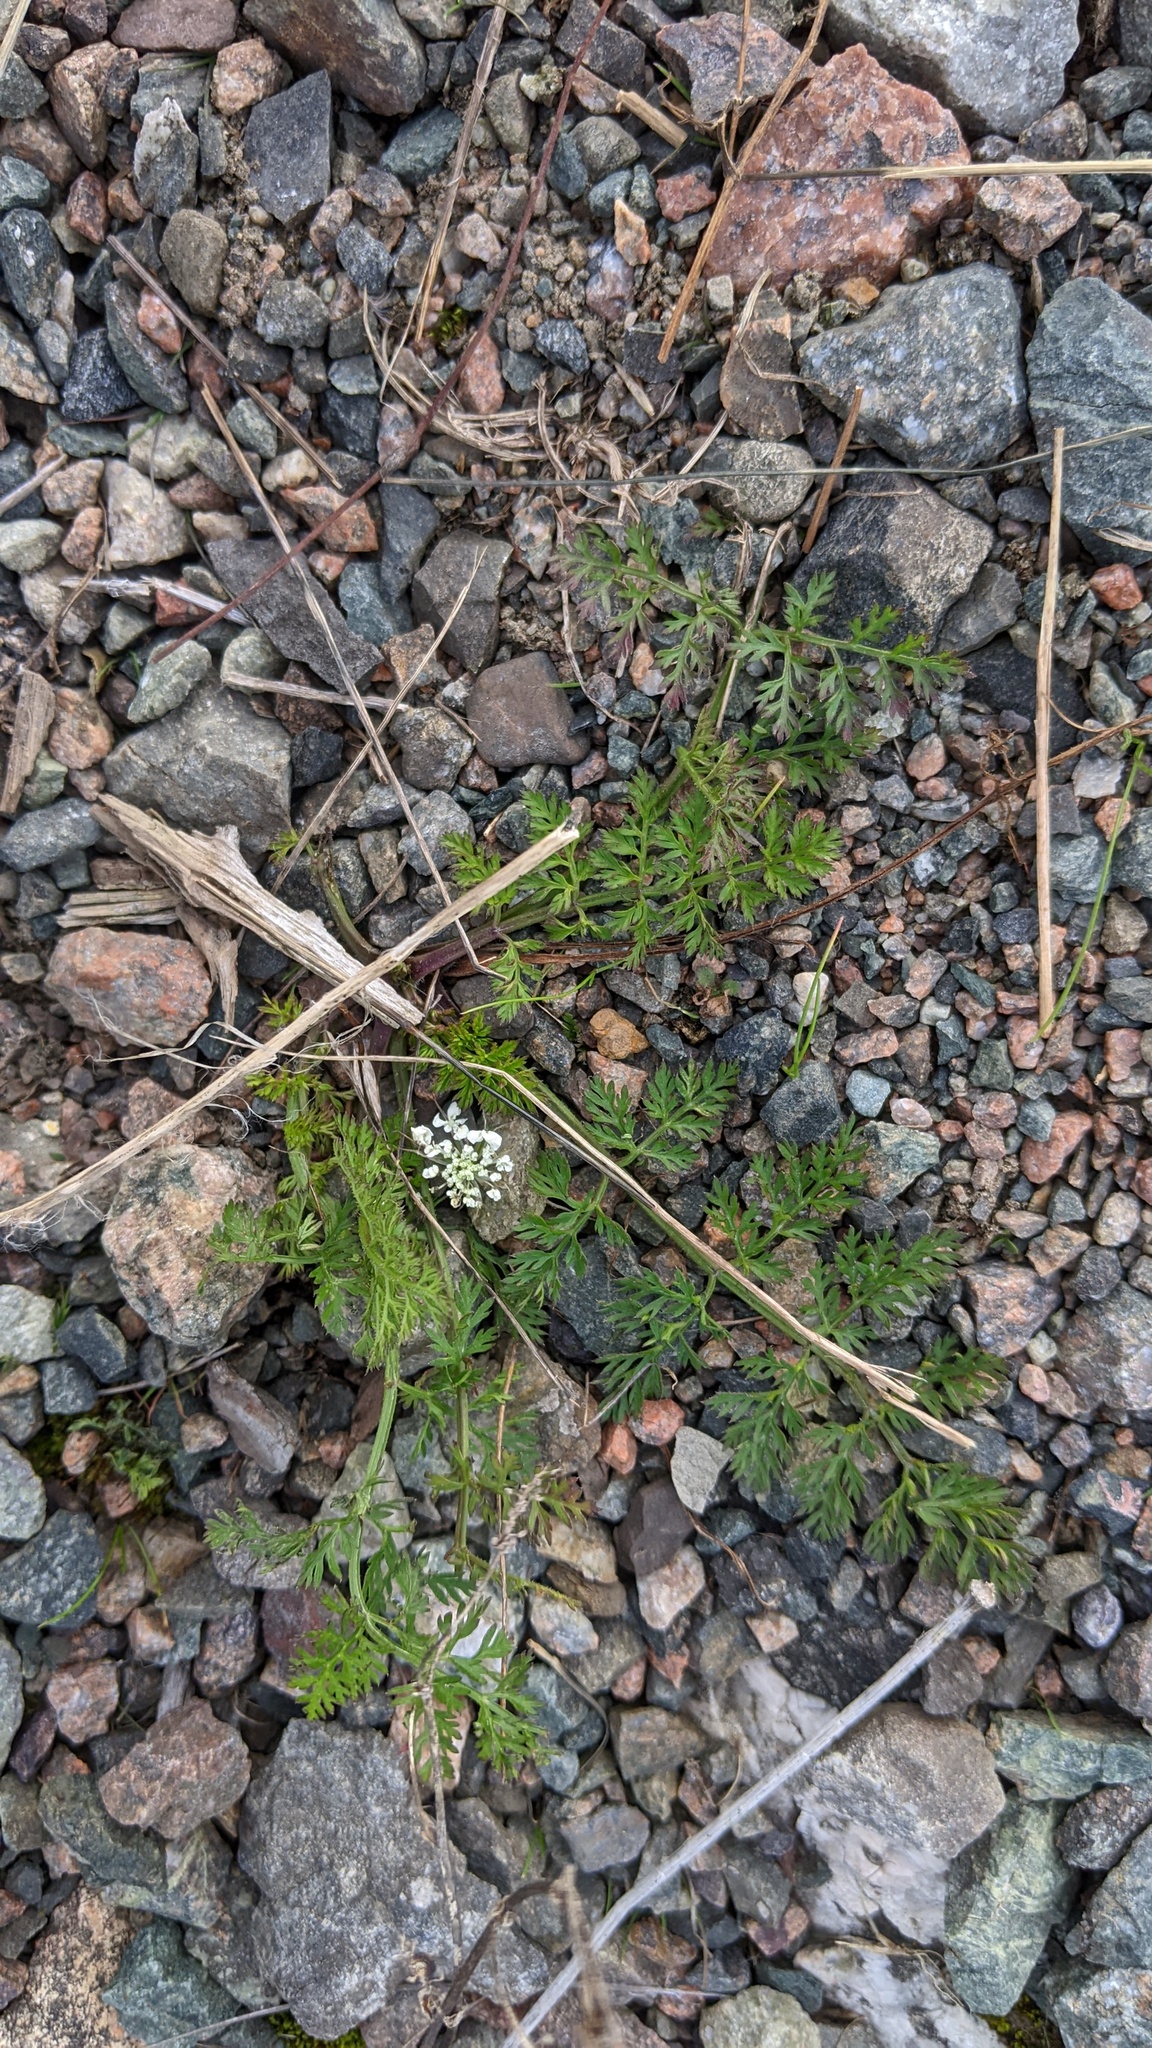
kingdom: Plantae
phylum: Tracheophyta
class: Magnoliopsida
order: Apiales
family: Apiaceae
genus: Daucus
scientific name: Daucus carota
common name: Wild carrot
